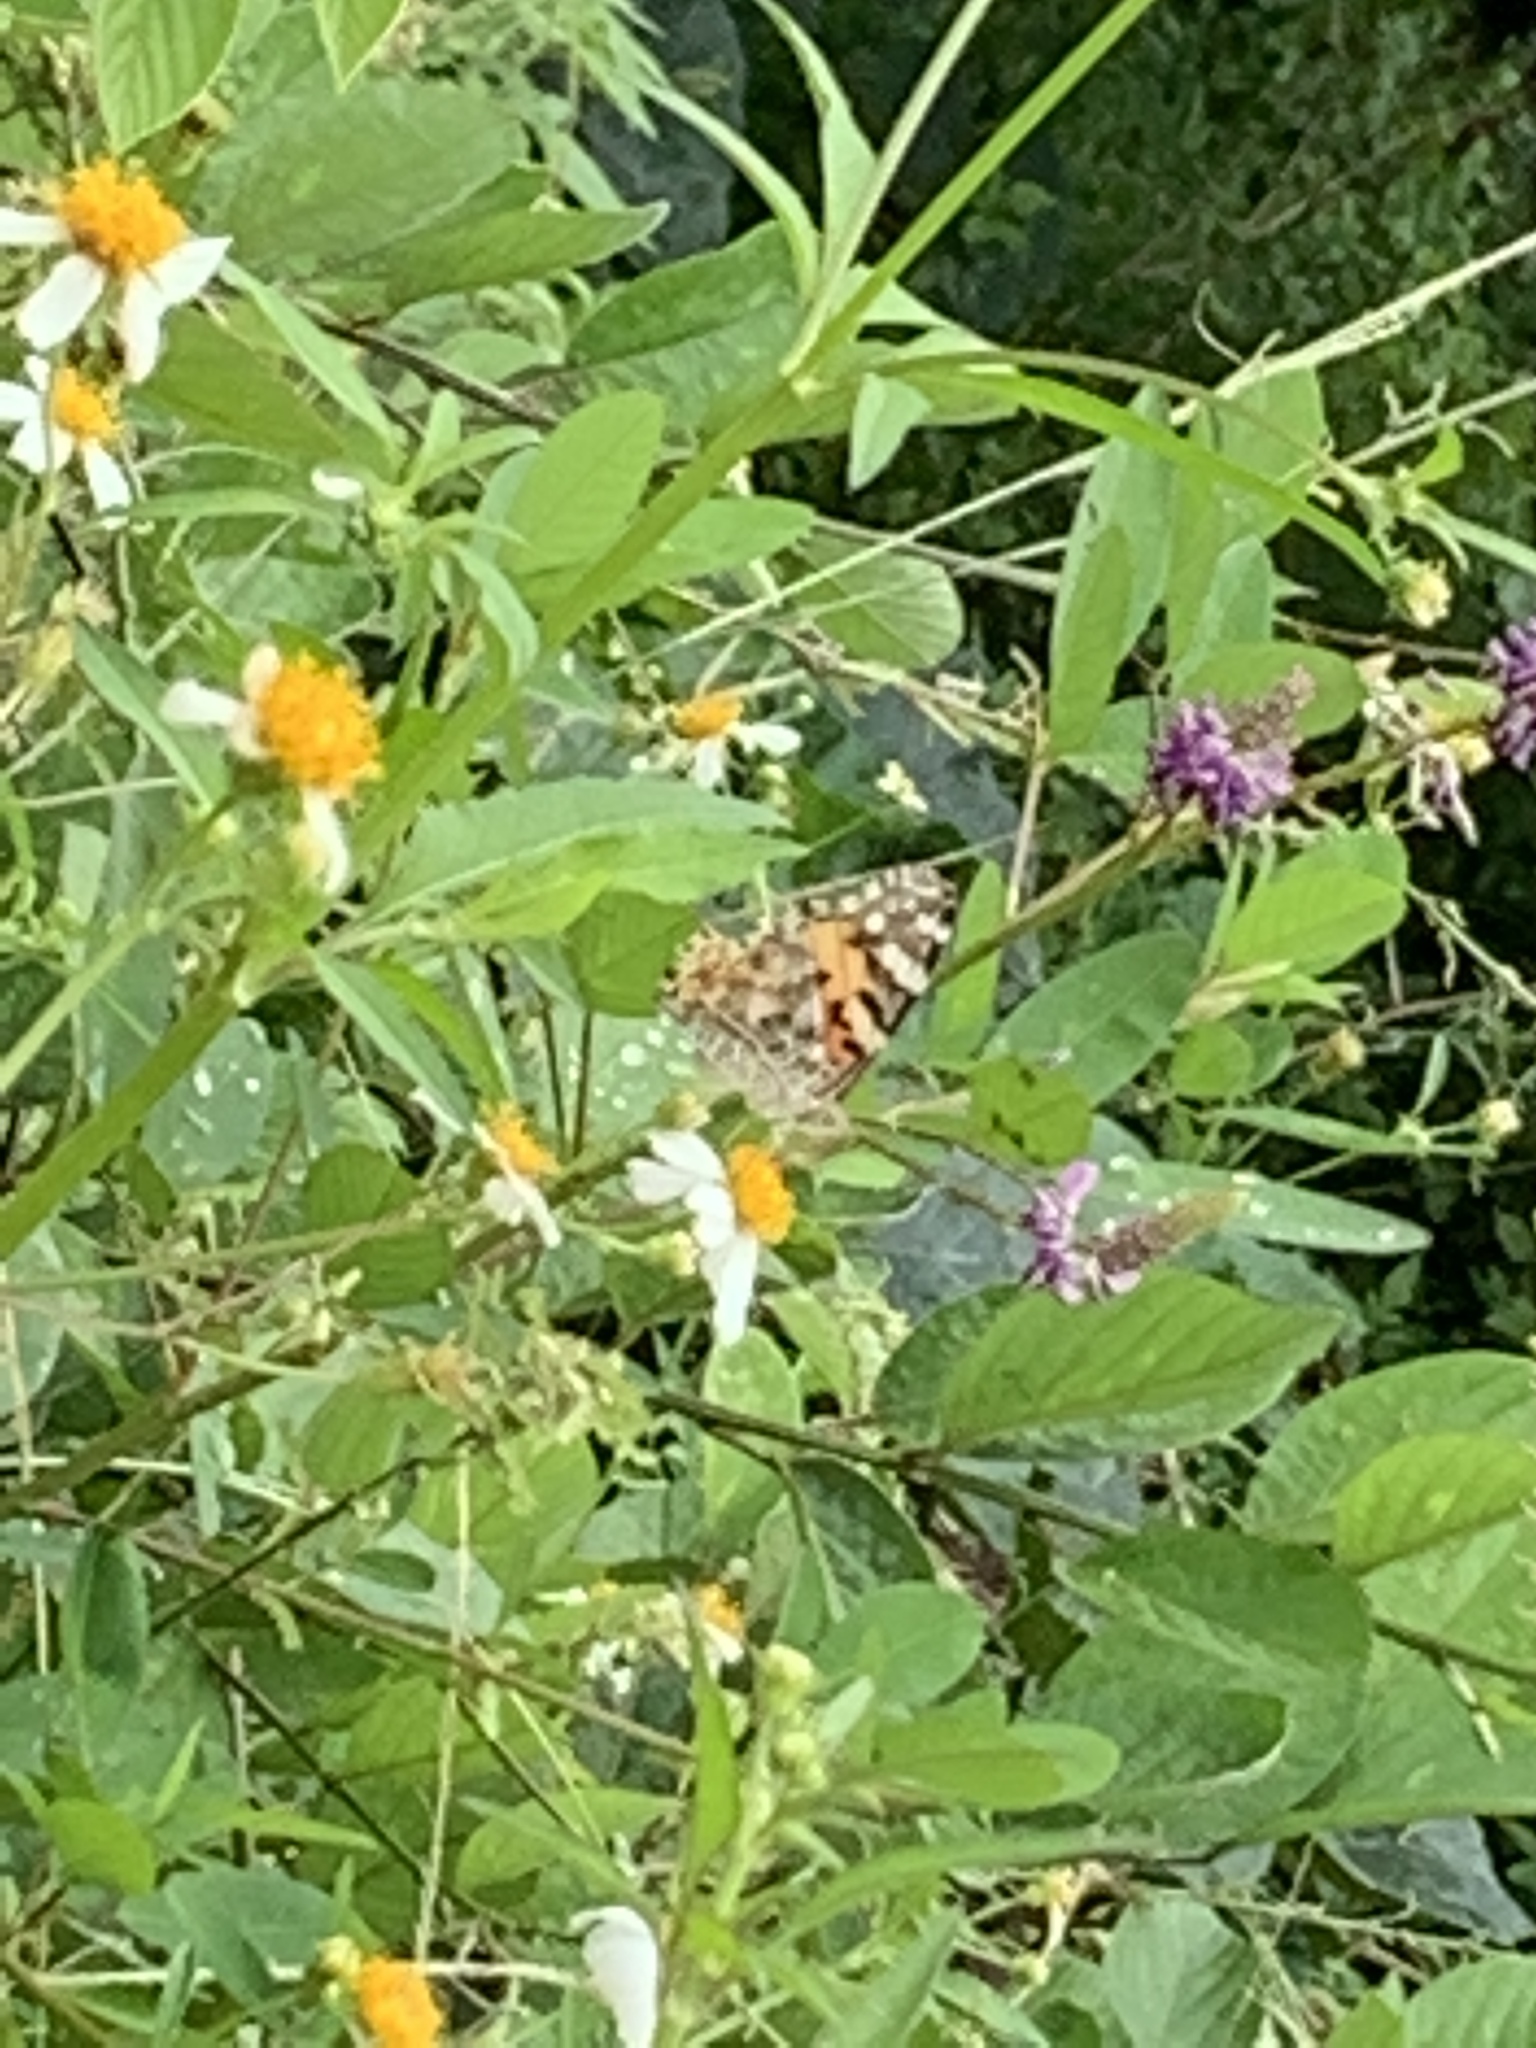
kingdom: Animalia
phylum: Arthropoda
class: Insecta
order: Lepidoptera
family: Nymphalidae
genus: Vanessa
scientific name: Vanessa cardui
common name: Painted lady
